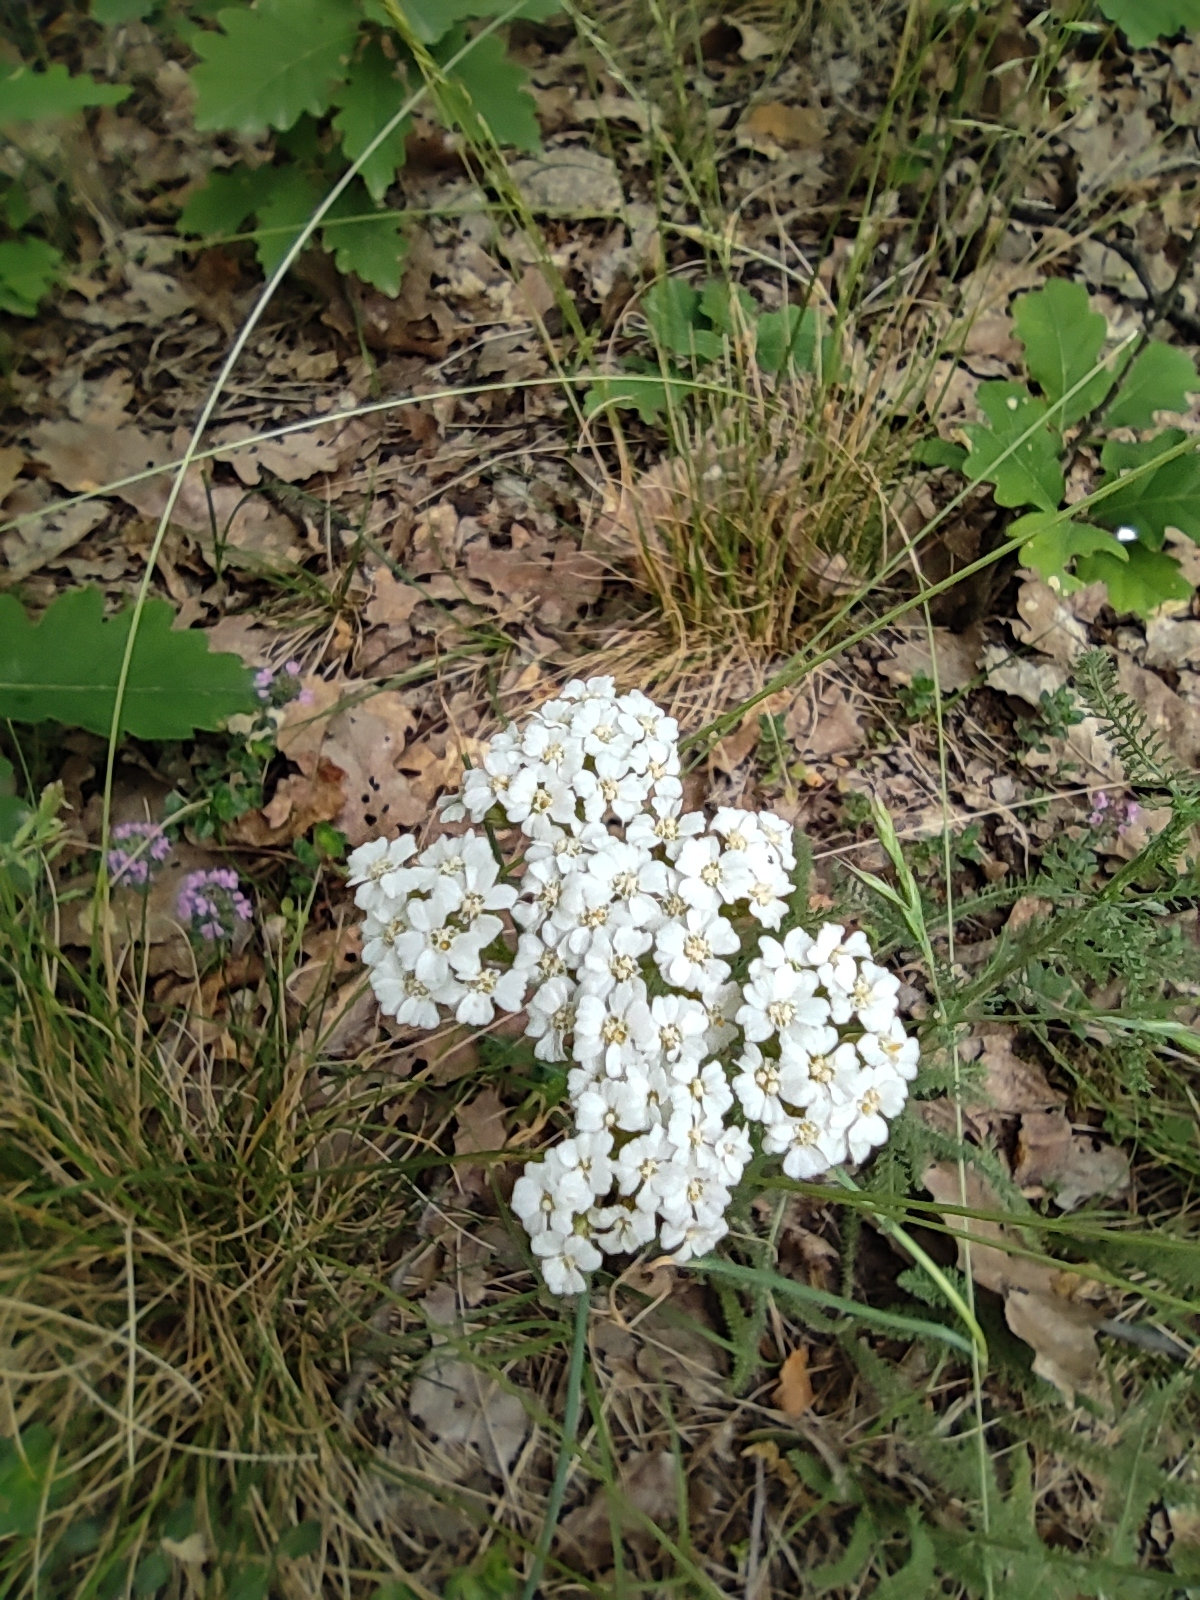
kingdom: Plantae
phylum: Tracheophyta
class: Magnoliopsida
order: Asterales
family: Asteraceae
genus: Achillea
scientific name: Achillea millefolium
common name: Yarrow
